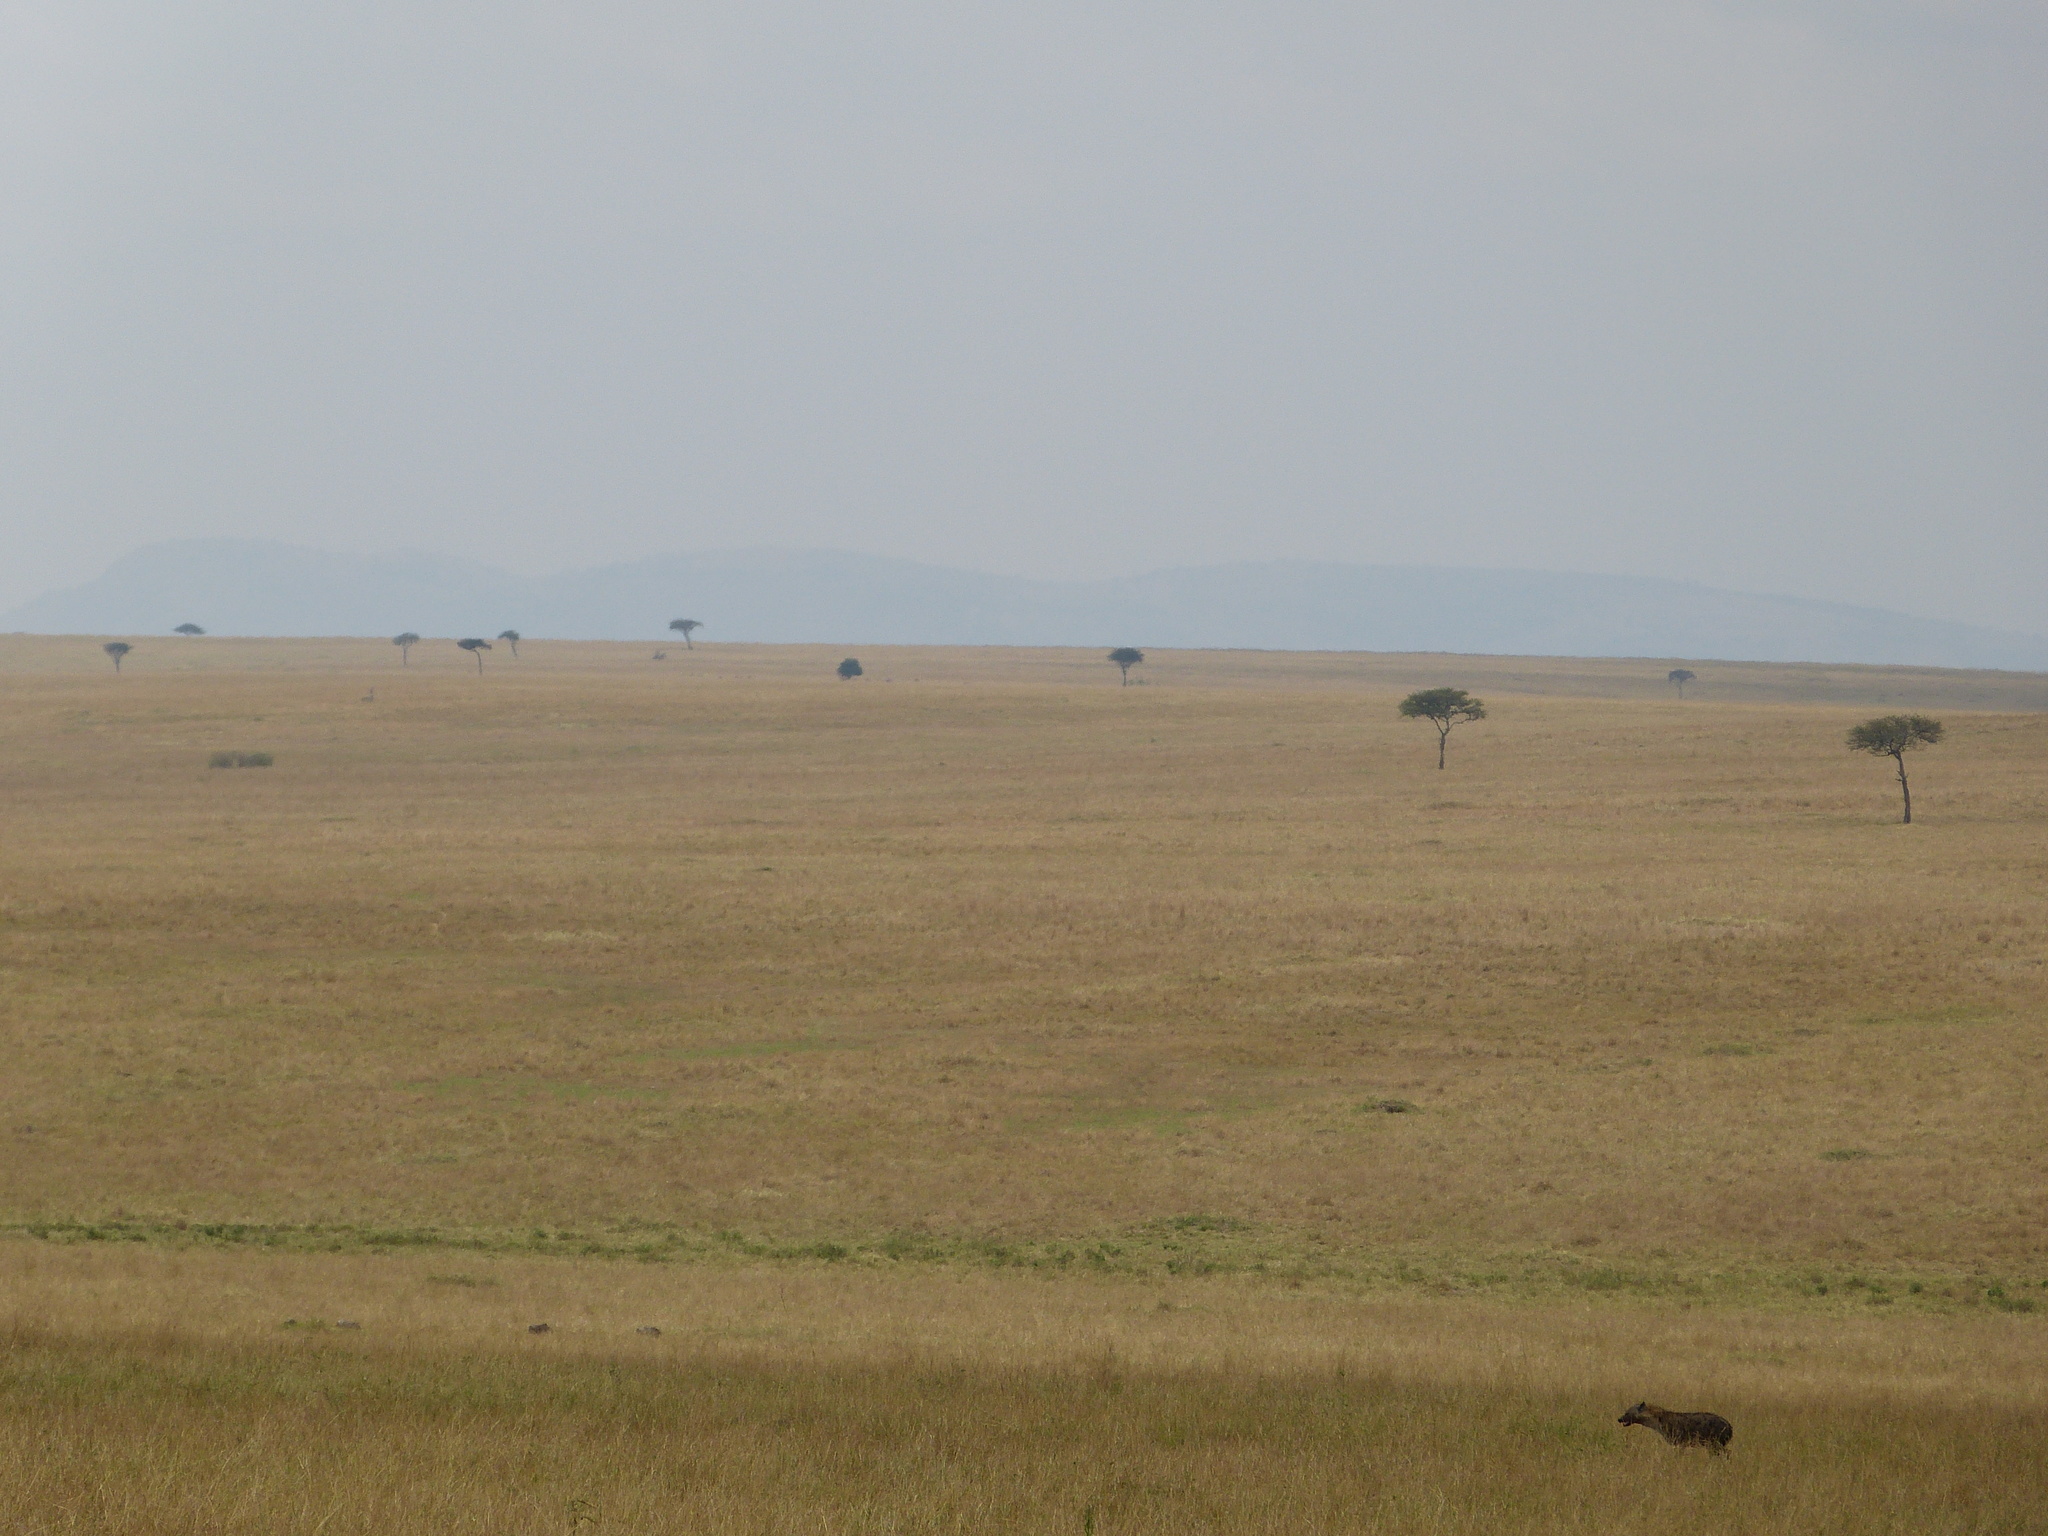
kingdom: Animalia
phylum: Chordata
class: Mammalia
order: Carnivora
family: Hyaenidae
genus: Crocuta
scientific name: Crocuta crocuta
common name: Spotted hyaena
